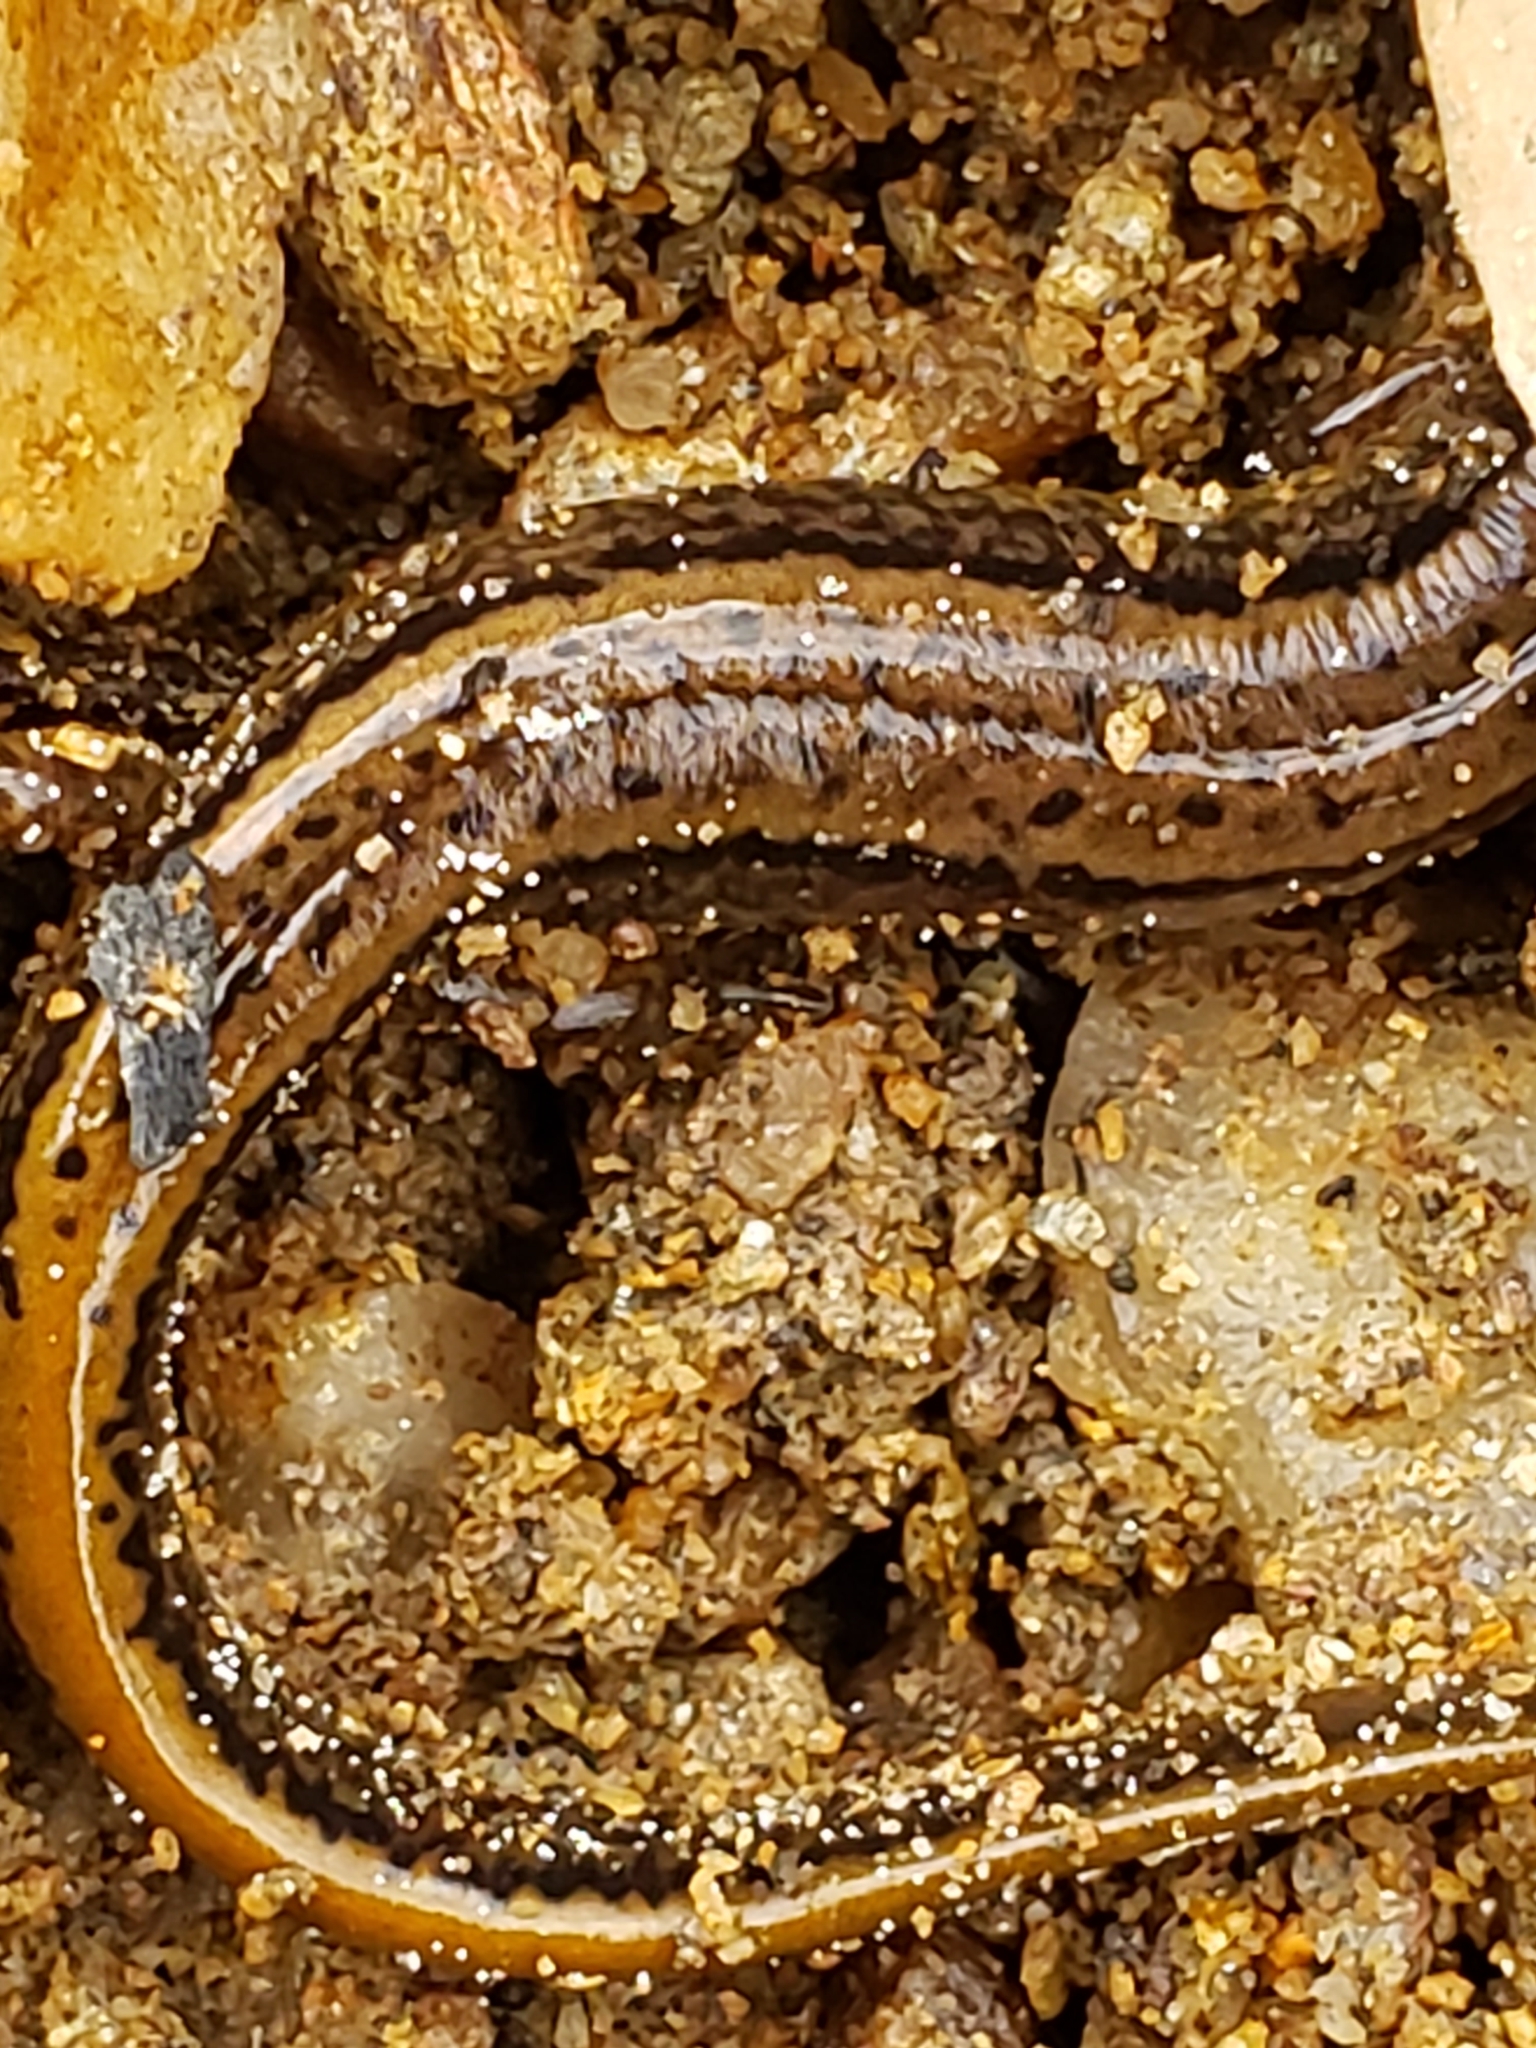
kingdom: Animalia
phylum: Chordata
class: Amphibia
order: Caudata
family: Plethodontidae
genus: Eurycea
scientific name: Eurycea bislineata
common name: Northern two-lined salamander
